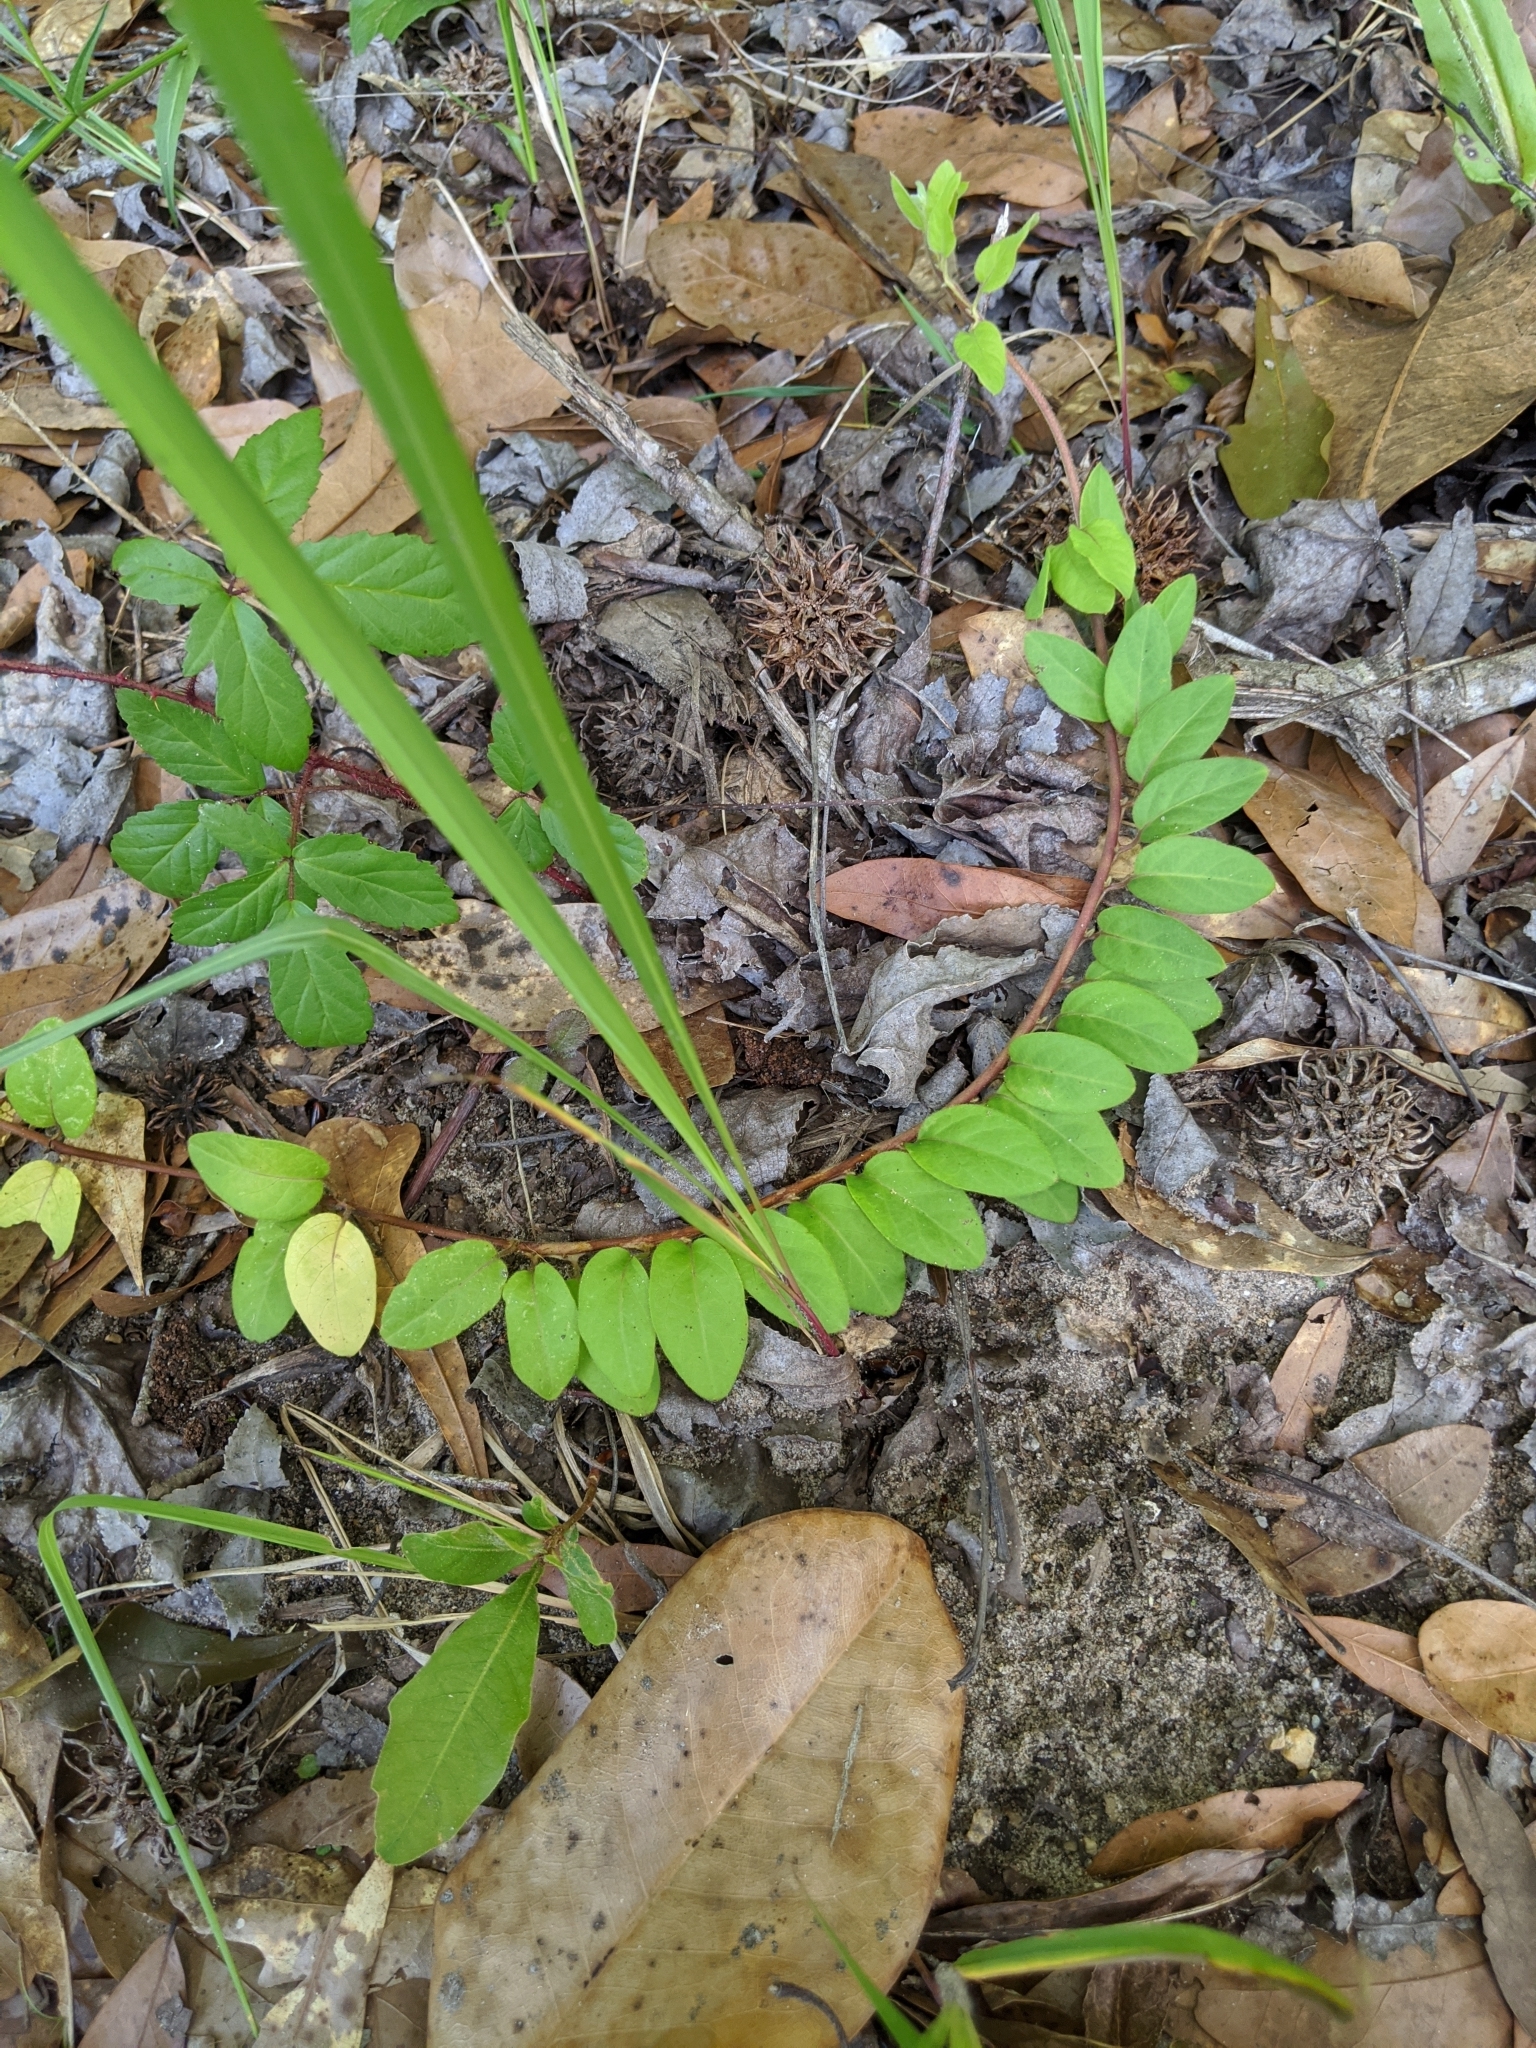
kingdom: Plantae
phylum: Tracheophyta
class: Magnoliopsida
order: Rosales
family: Rhamnaceae
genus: Berchemia
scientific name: Berchemia scandens
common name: Supplejack
